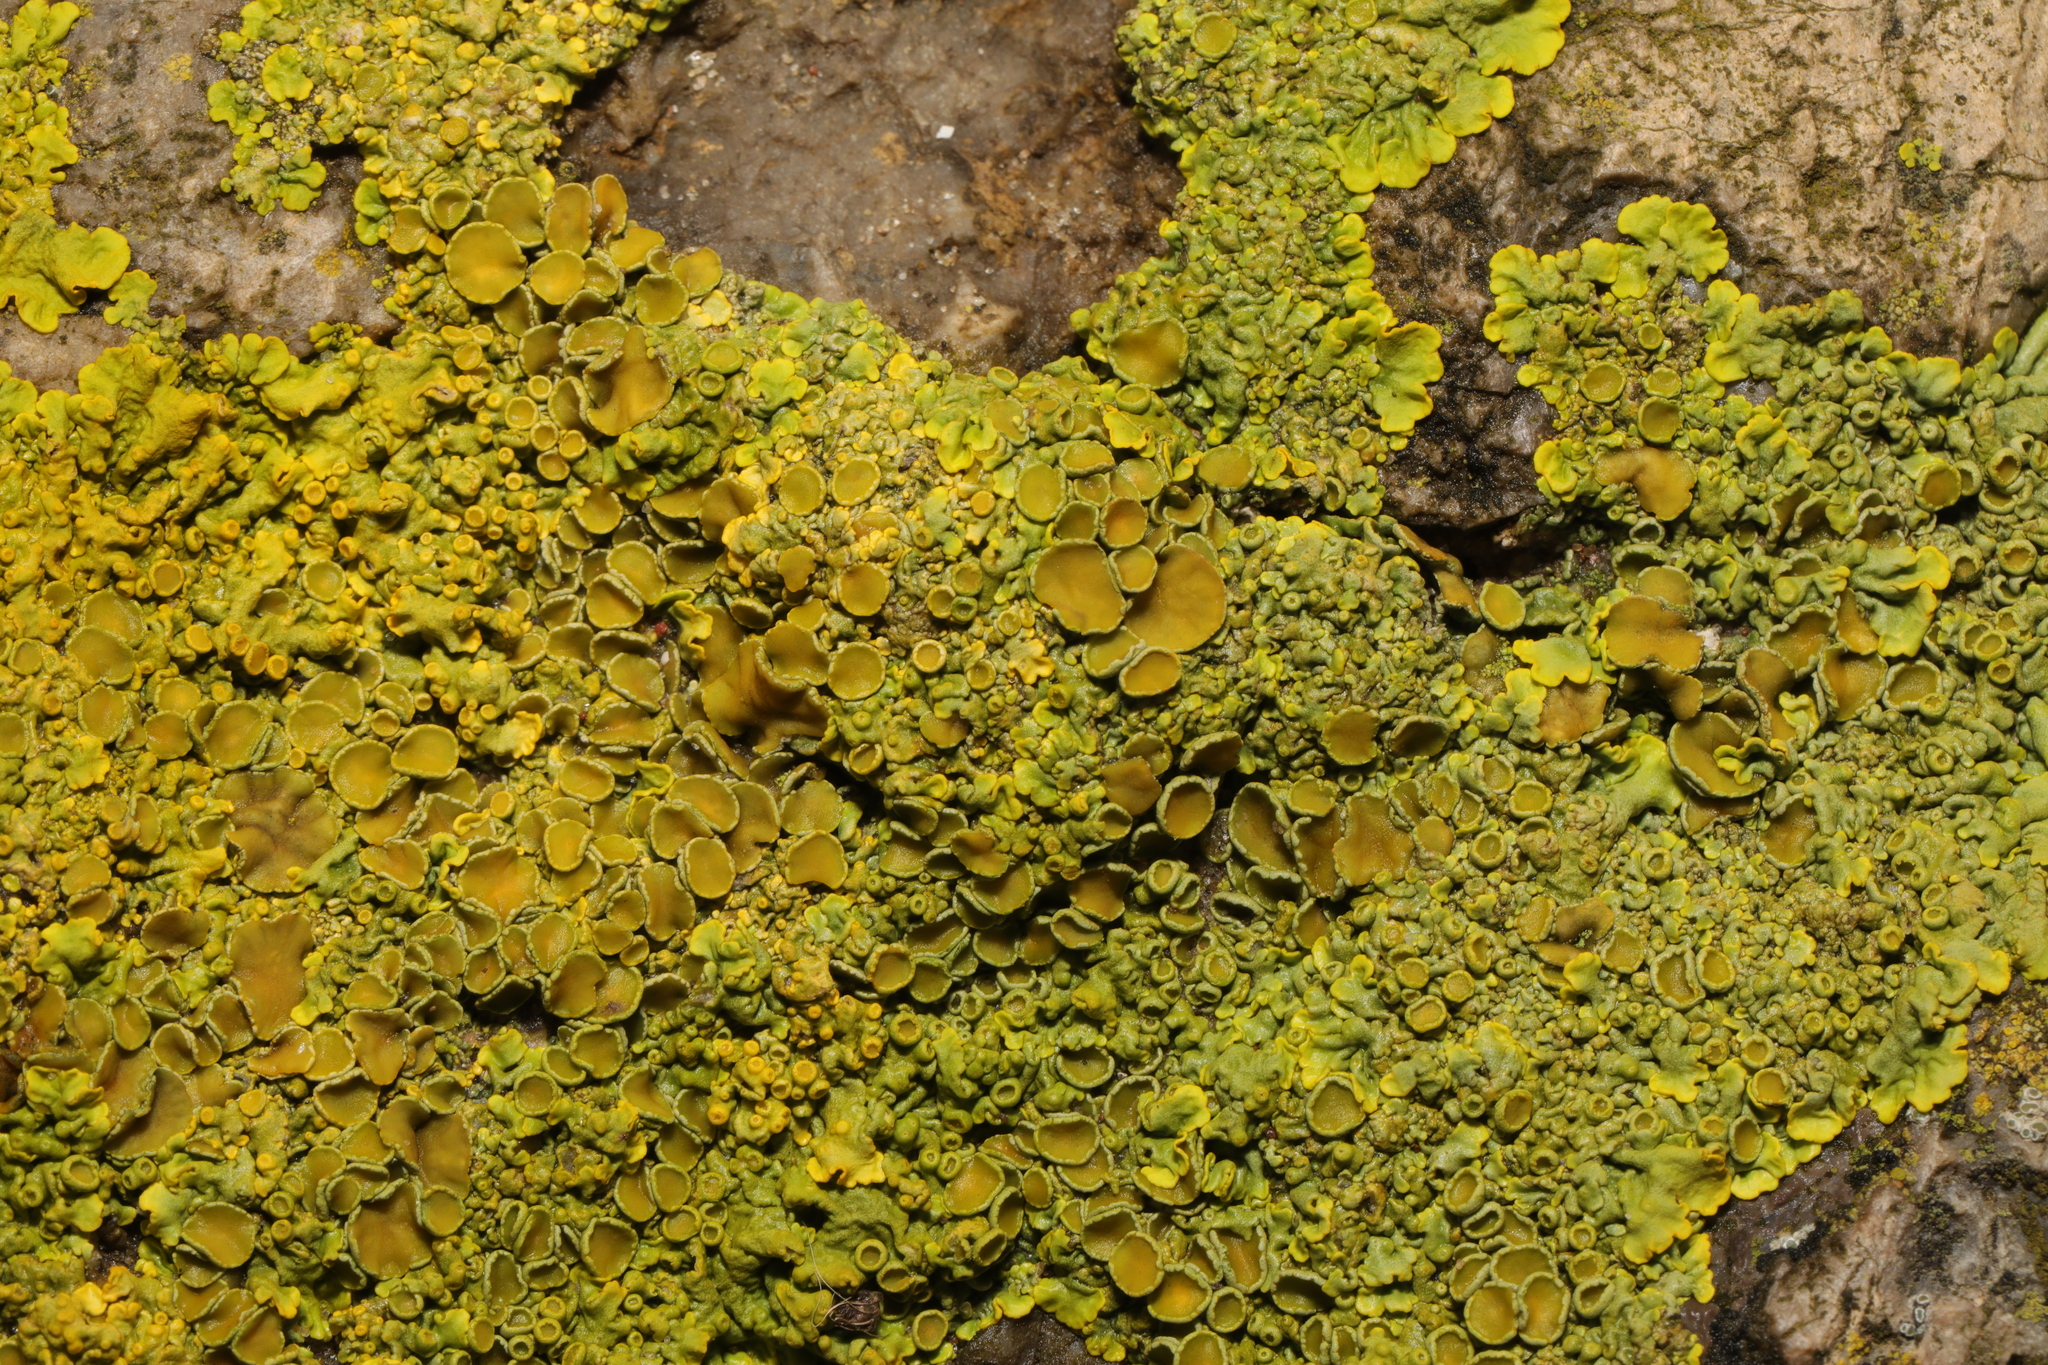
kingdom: Fungi
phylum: Ascomycota
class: Lecanoromycetes
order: Teloschistales
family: Teloschistaceae
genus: Xanthoria
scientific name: Xanthoria parietina
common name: Common orange lichen
